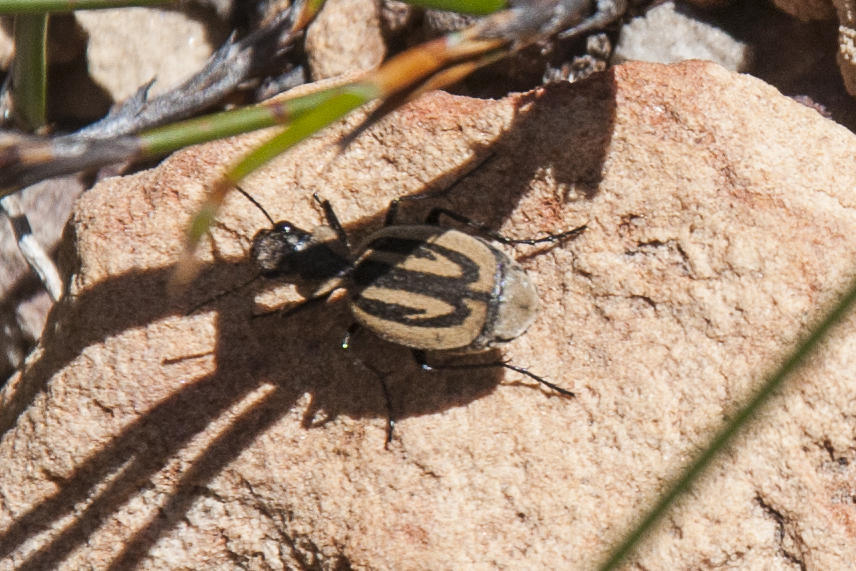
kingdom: Animalia
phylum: Arthropoda
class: Insecta
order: Coleoptera
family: Carabidae
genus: Graphipterus
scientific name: Graphipterus trilineatus
